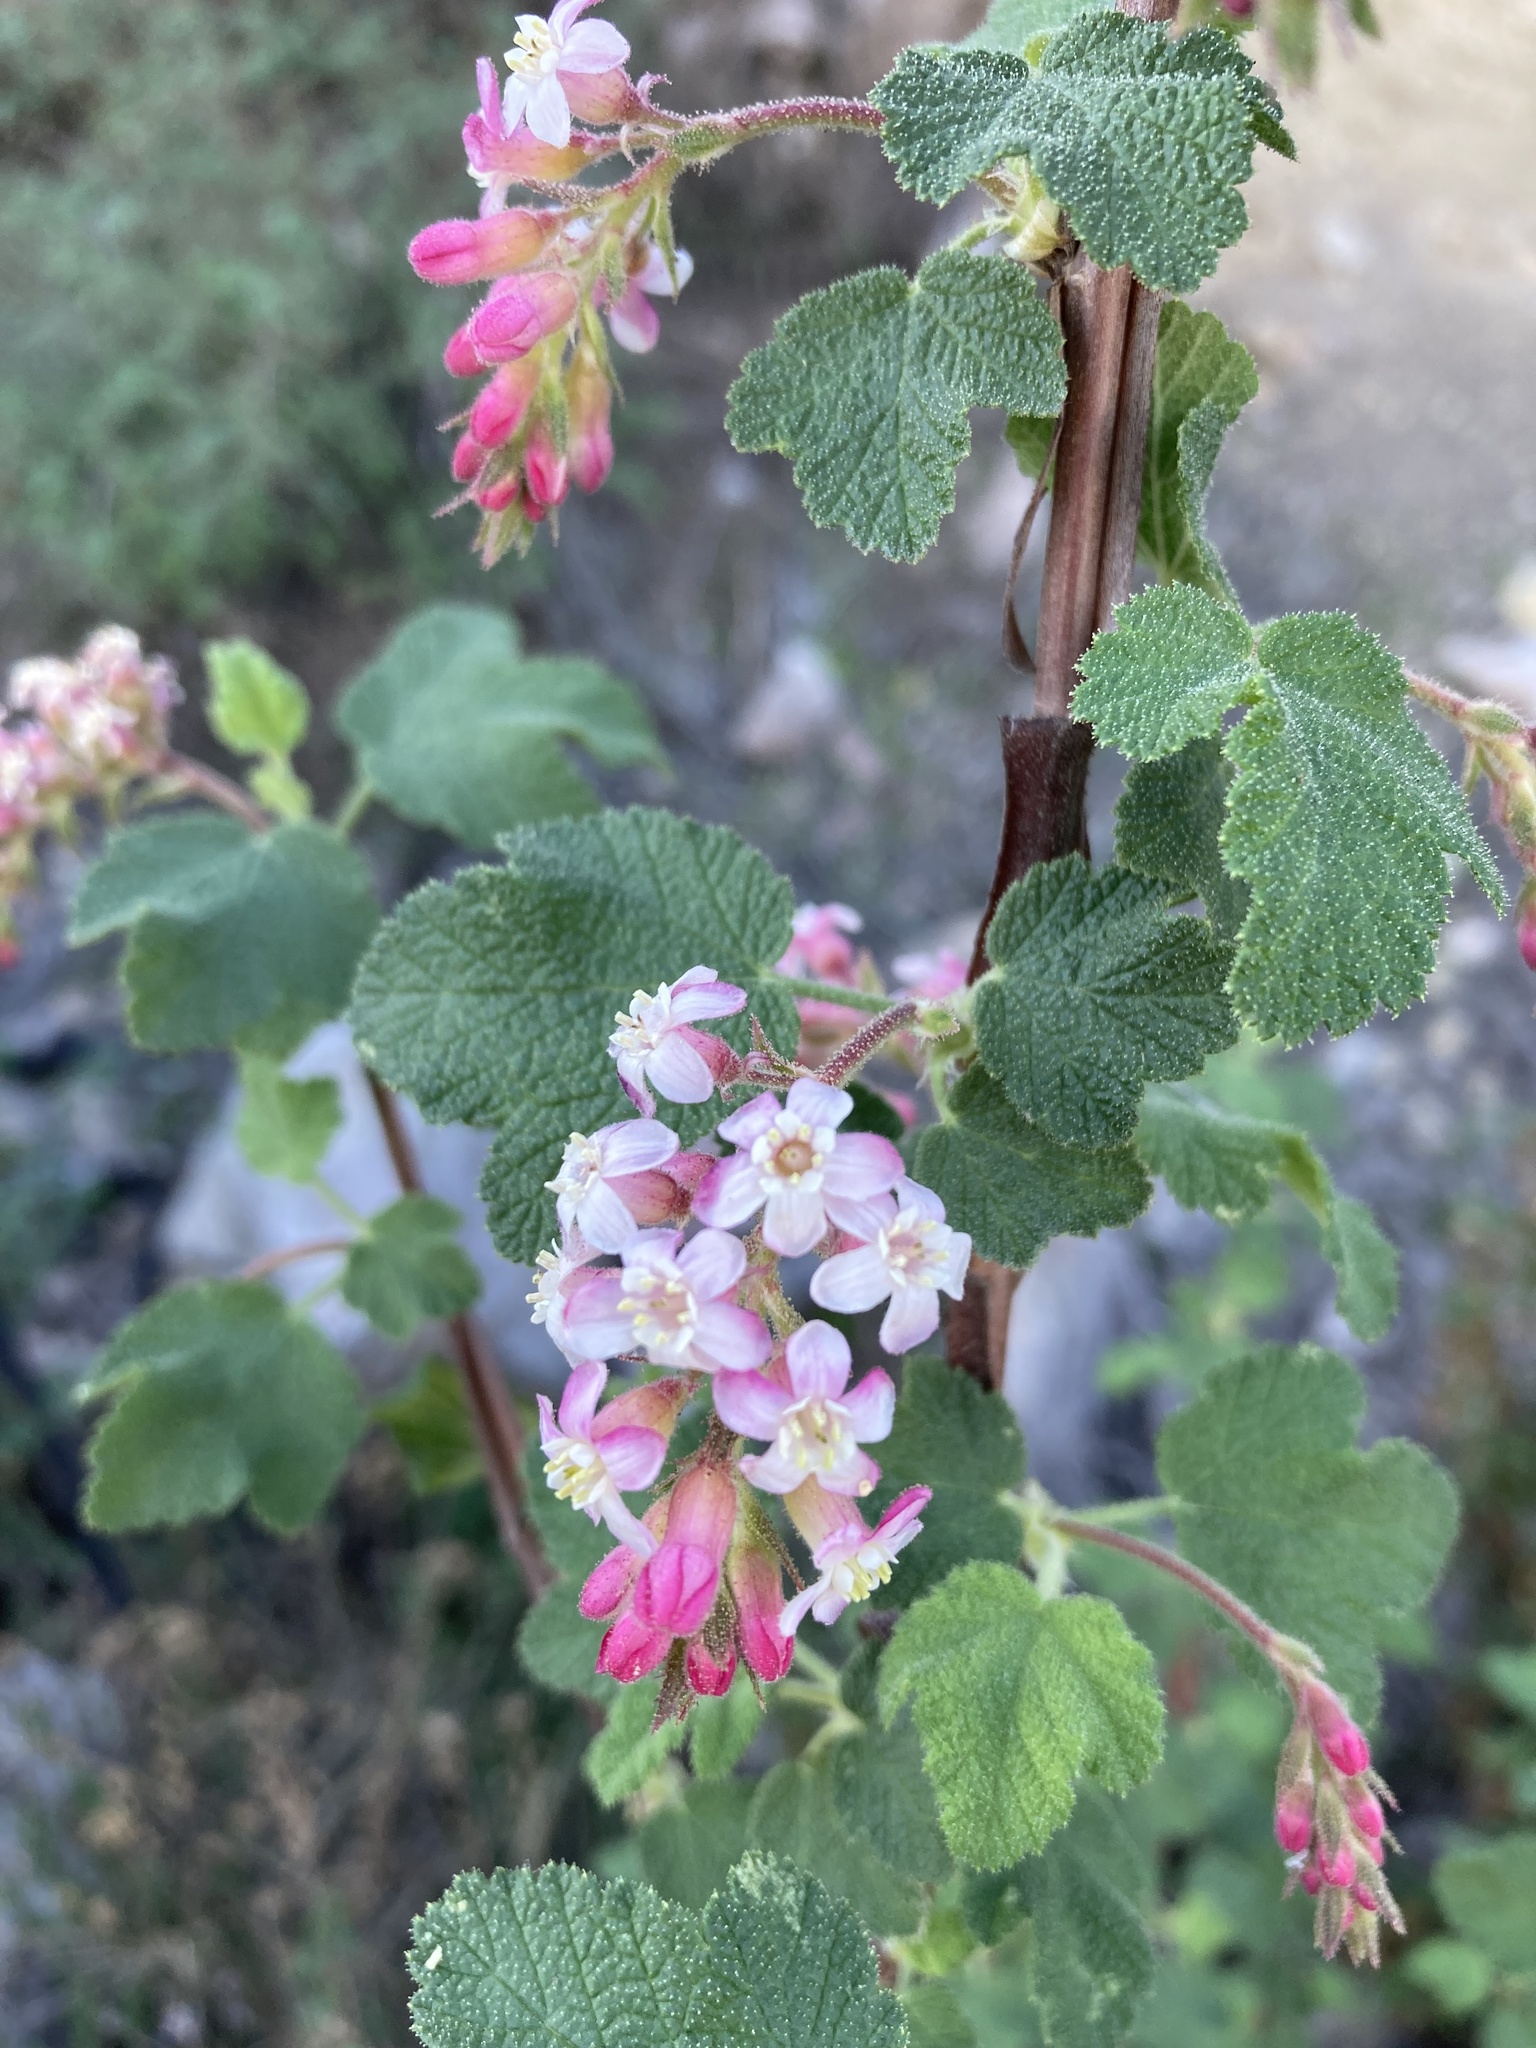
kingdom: Plantae
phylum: Tracheophyta
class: Magnoliopsida
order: Saxifragales
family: Grossulariaceae
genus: Ribes
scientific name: Ribes malvaceum
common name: Chaparral currant
